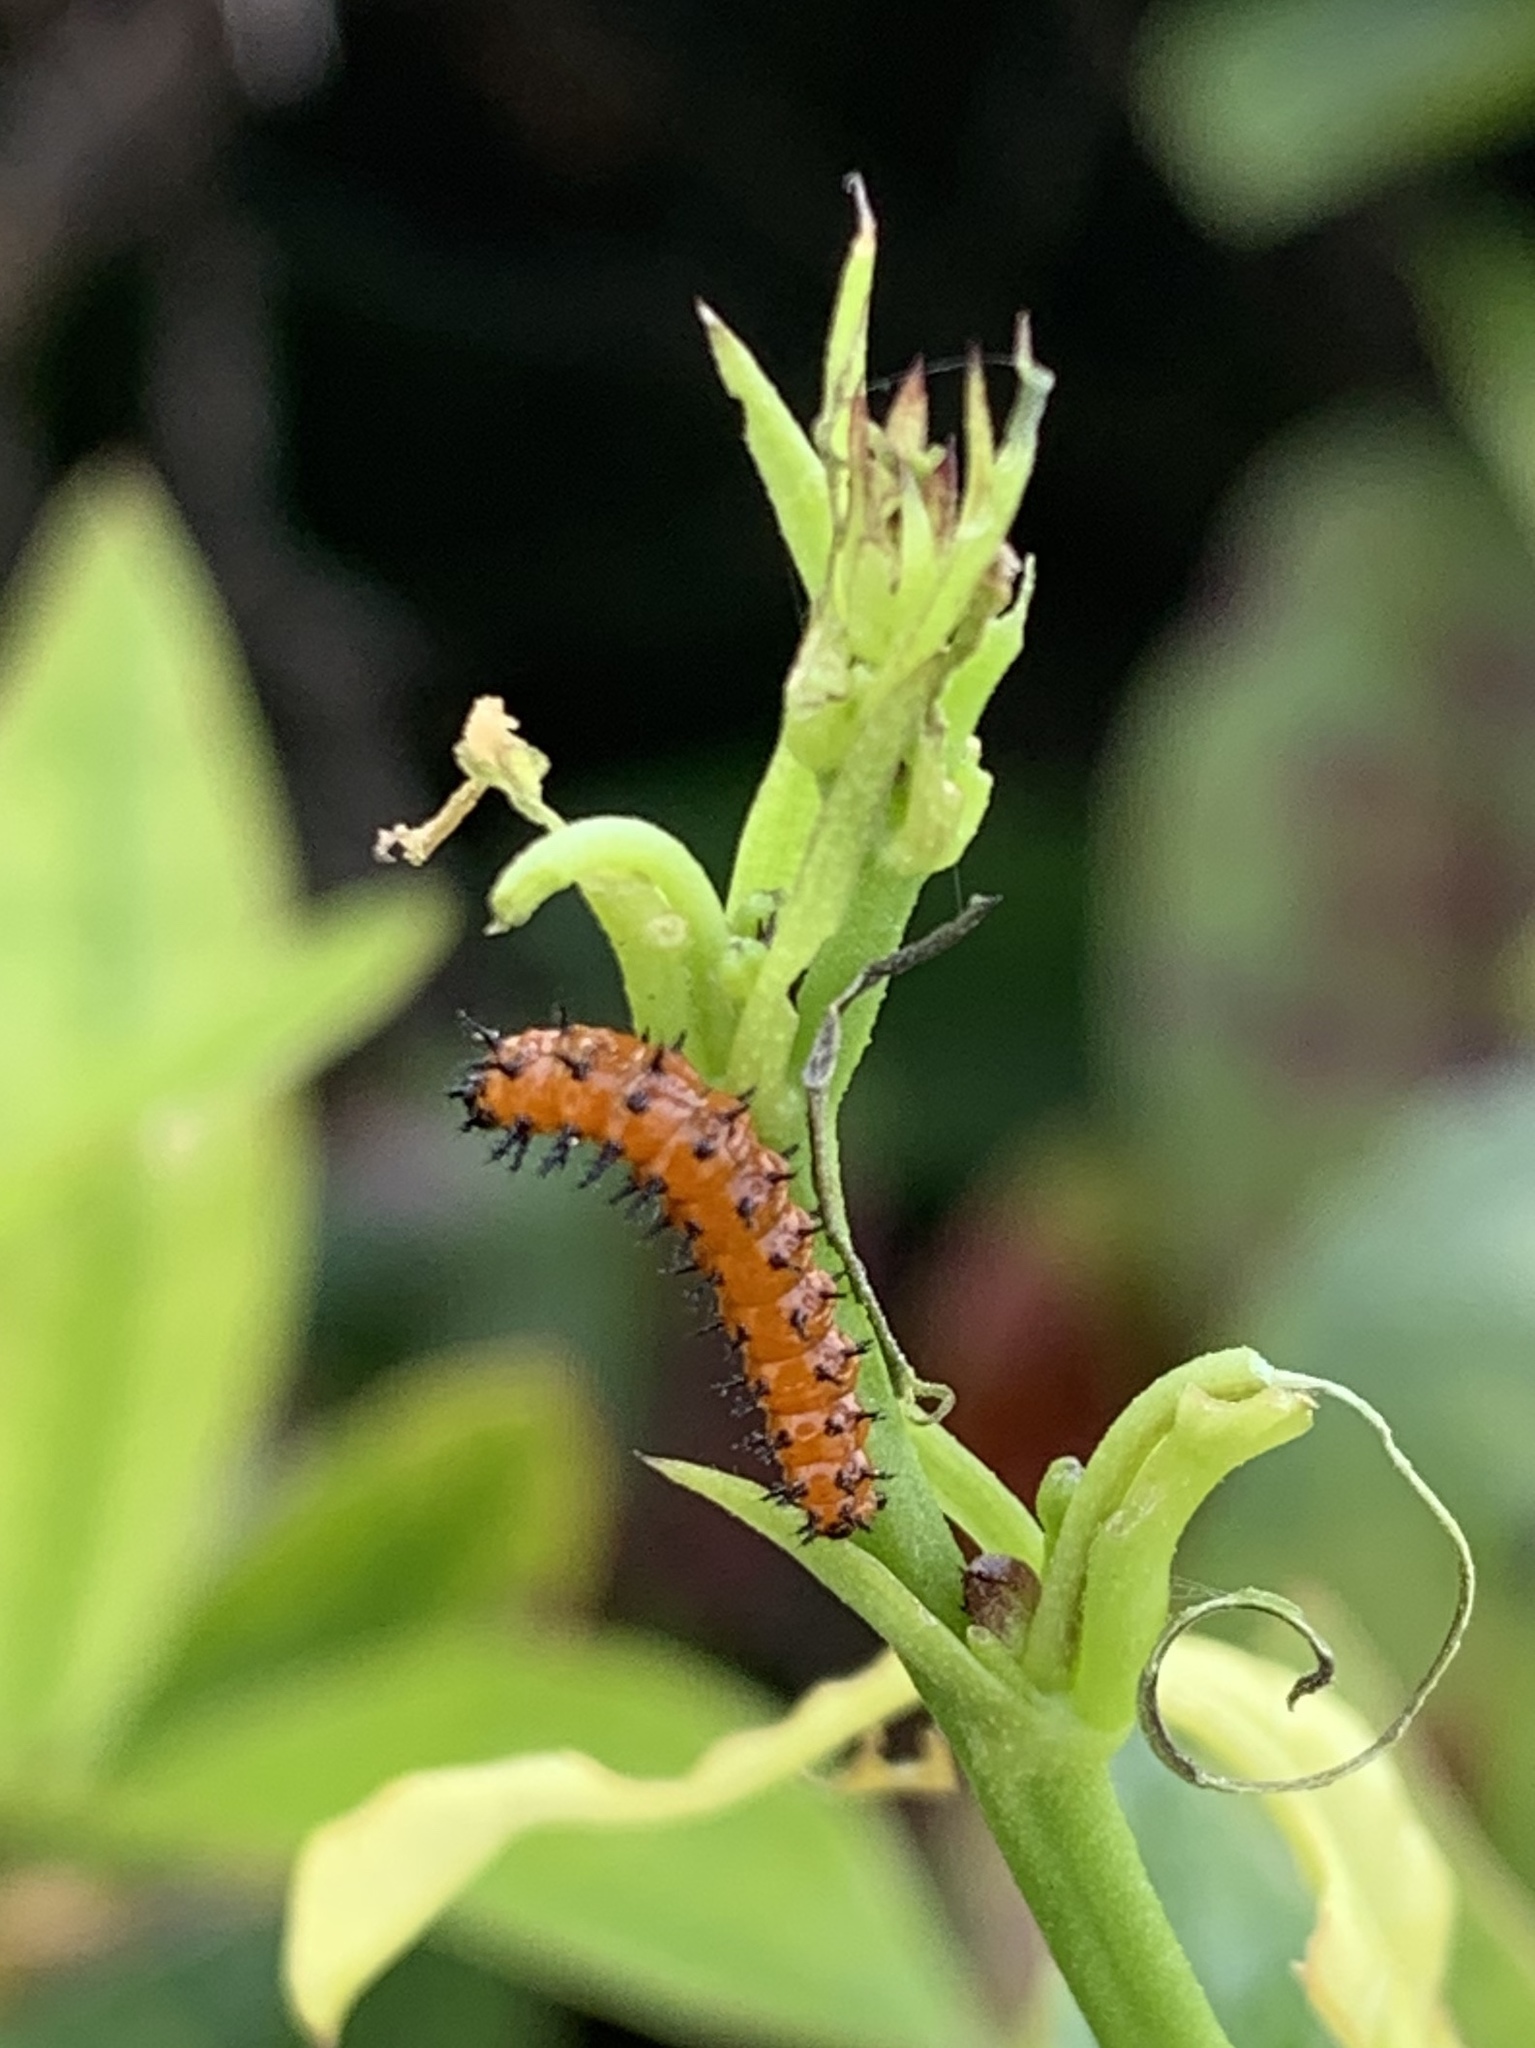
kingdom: Animalia
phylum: Arthropoda
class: Insecta
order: Lepidoptera
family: Nymphalidae
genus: Dione
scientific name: Dione vanillae
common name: Gulf fritillary
